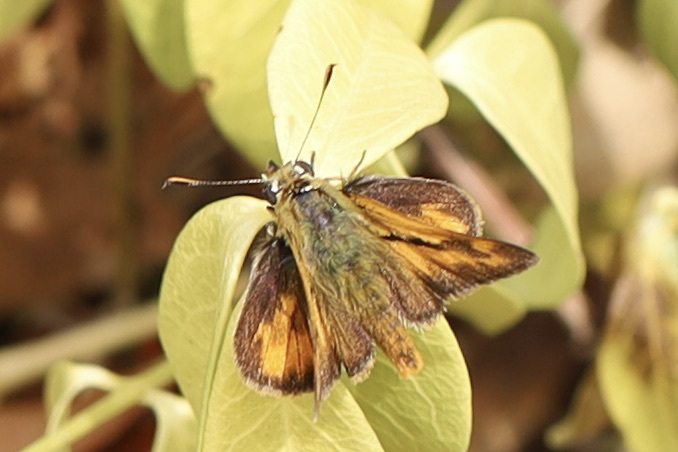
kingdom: Animalia
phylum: Arthropoda
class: Insecta
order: Lepidoptera
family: Hesperiidae
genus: Ochlodes
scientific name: Ochlodes sylvanoides
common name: Woodland skipper
